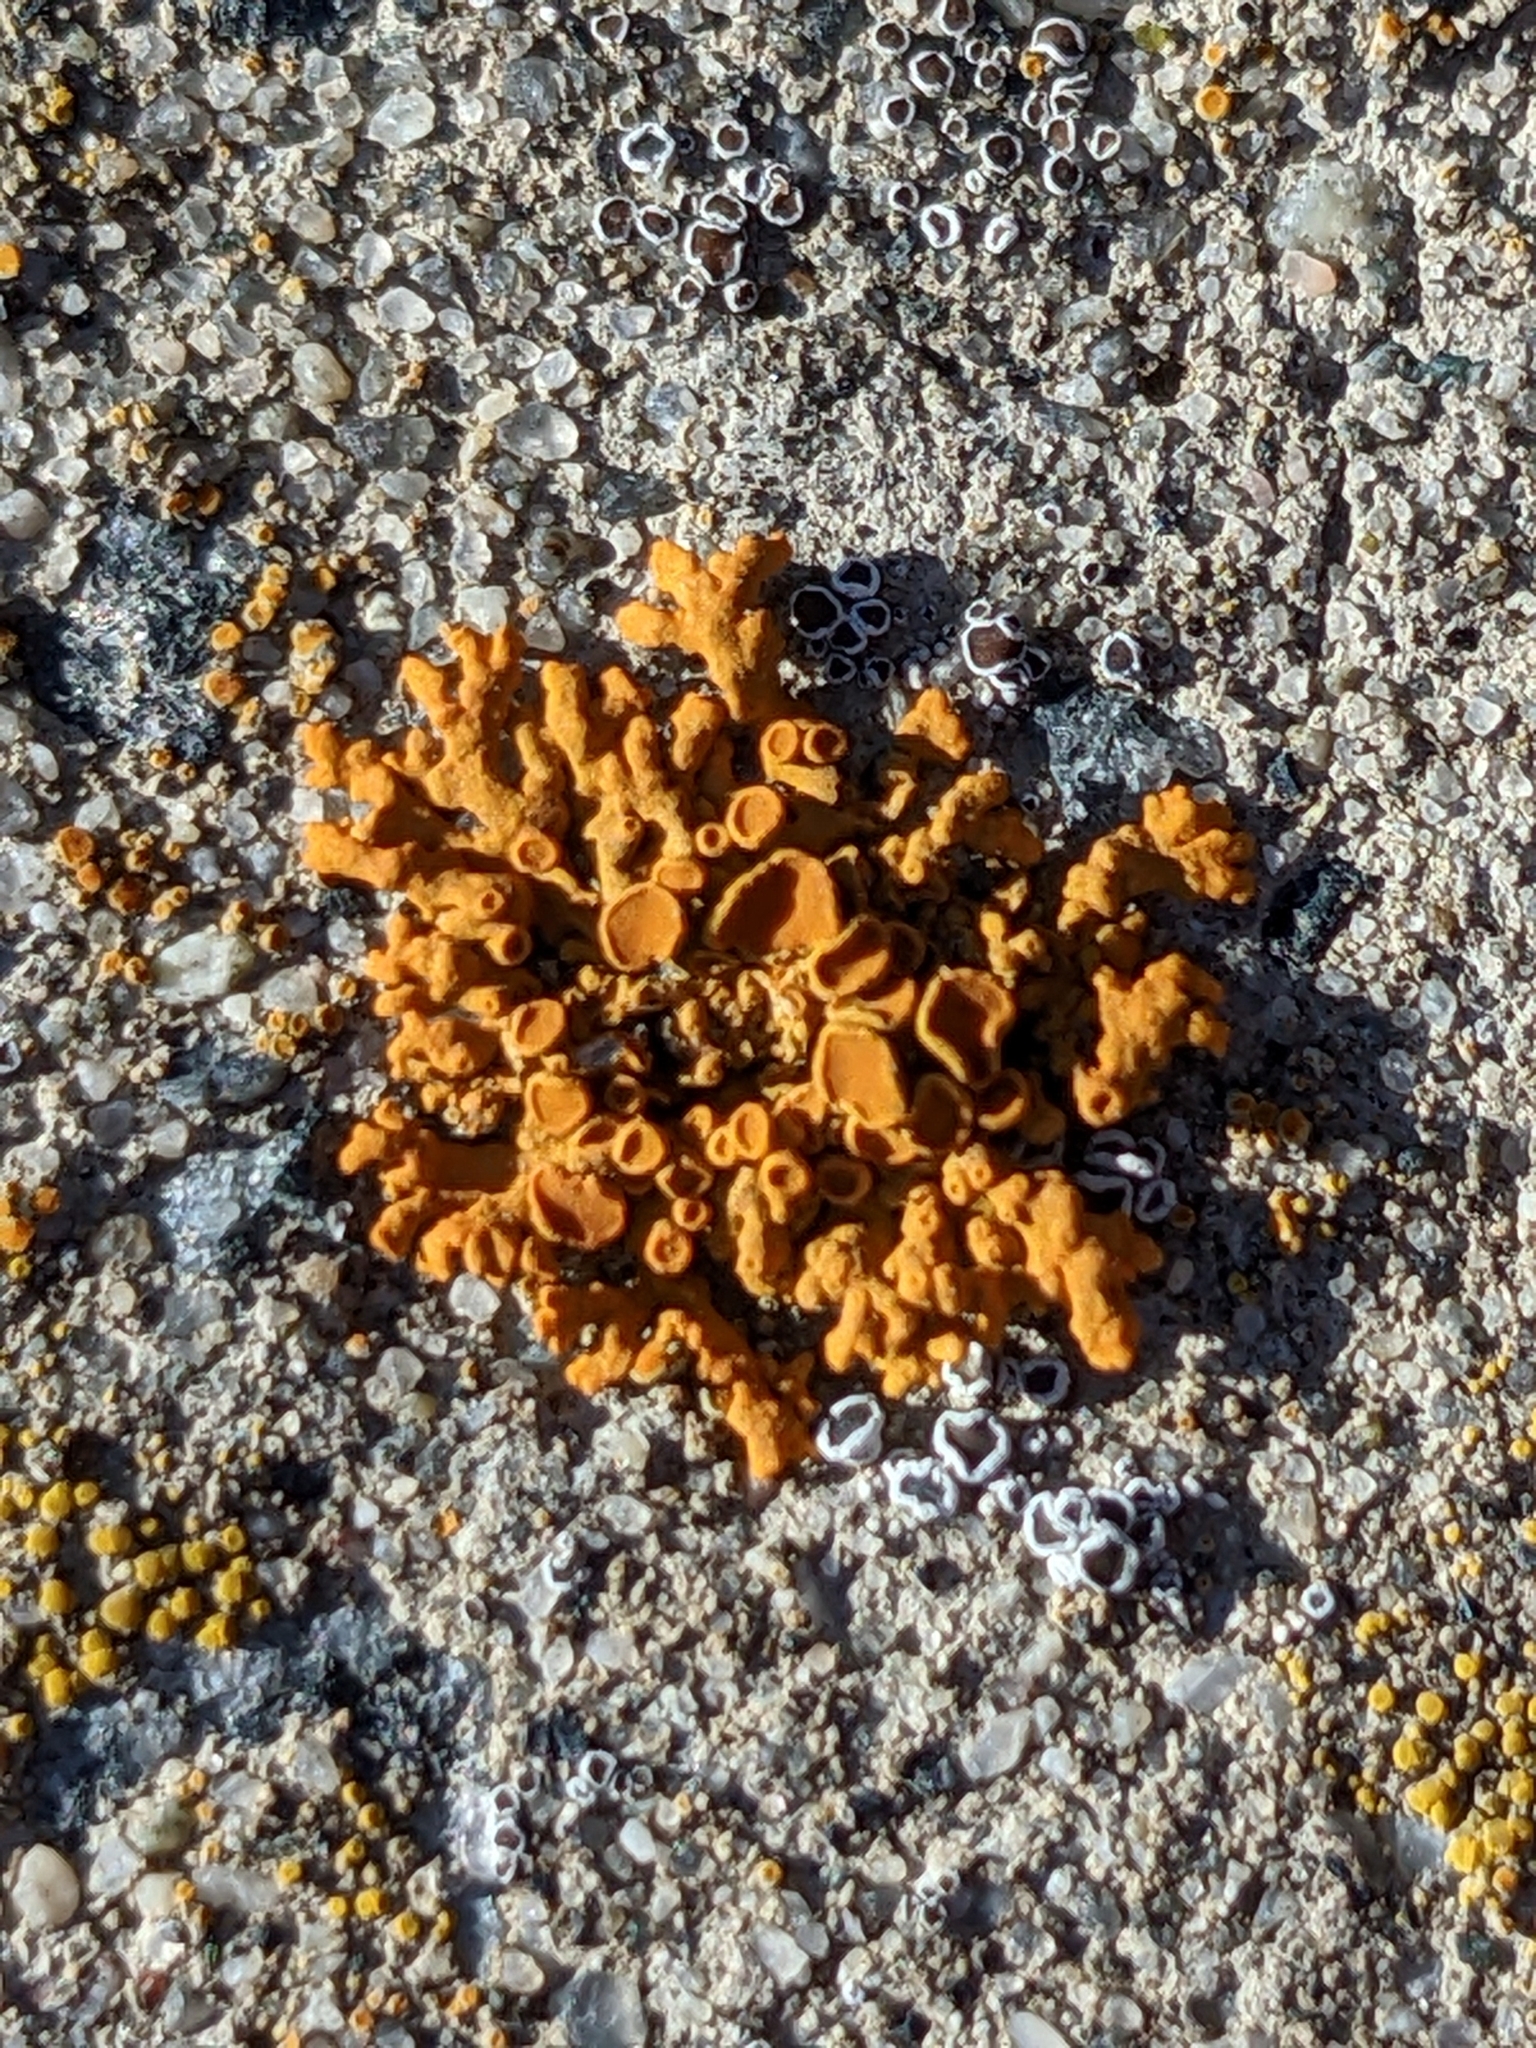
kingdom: Fungi
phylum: Ascomycota
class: Lecanoromycetes
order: Teloschistales
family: Teloschistaceae
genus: Xanthoria
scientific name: Xanthoria elegans
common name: Elegant sunburst lichen
